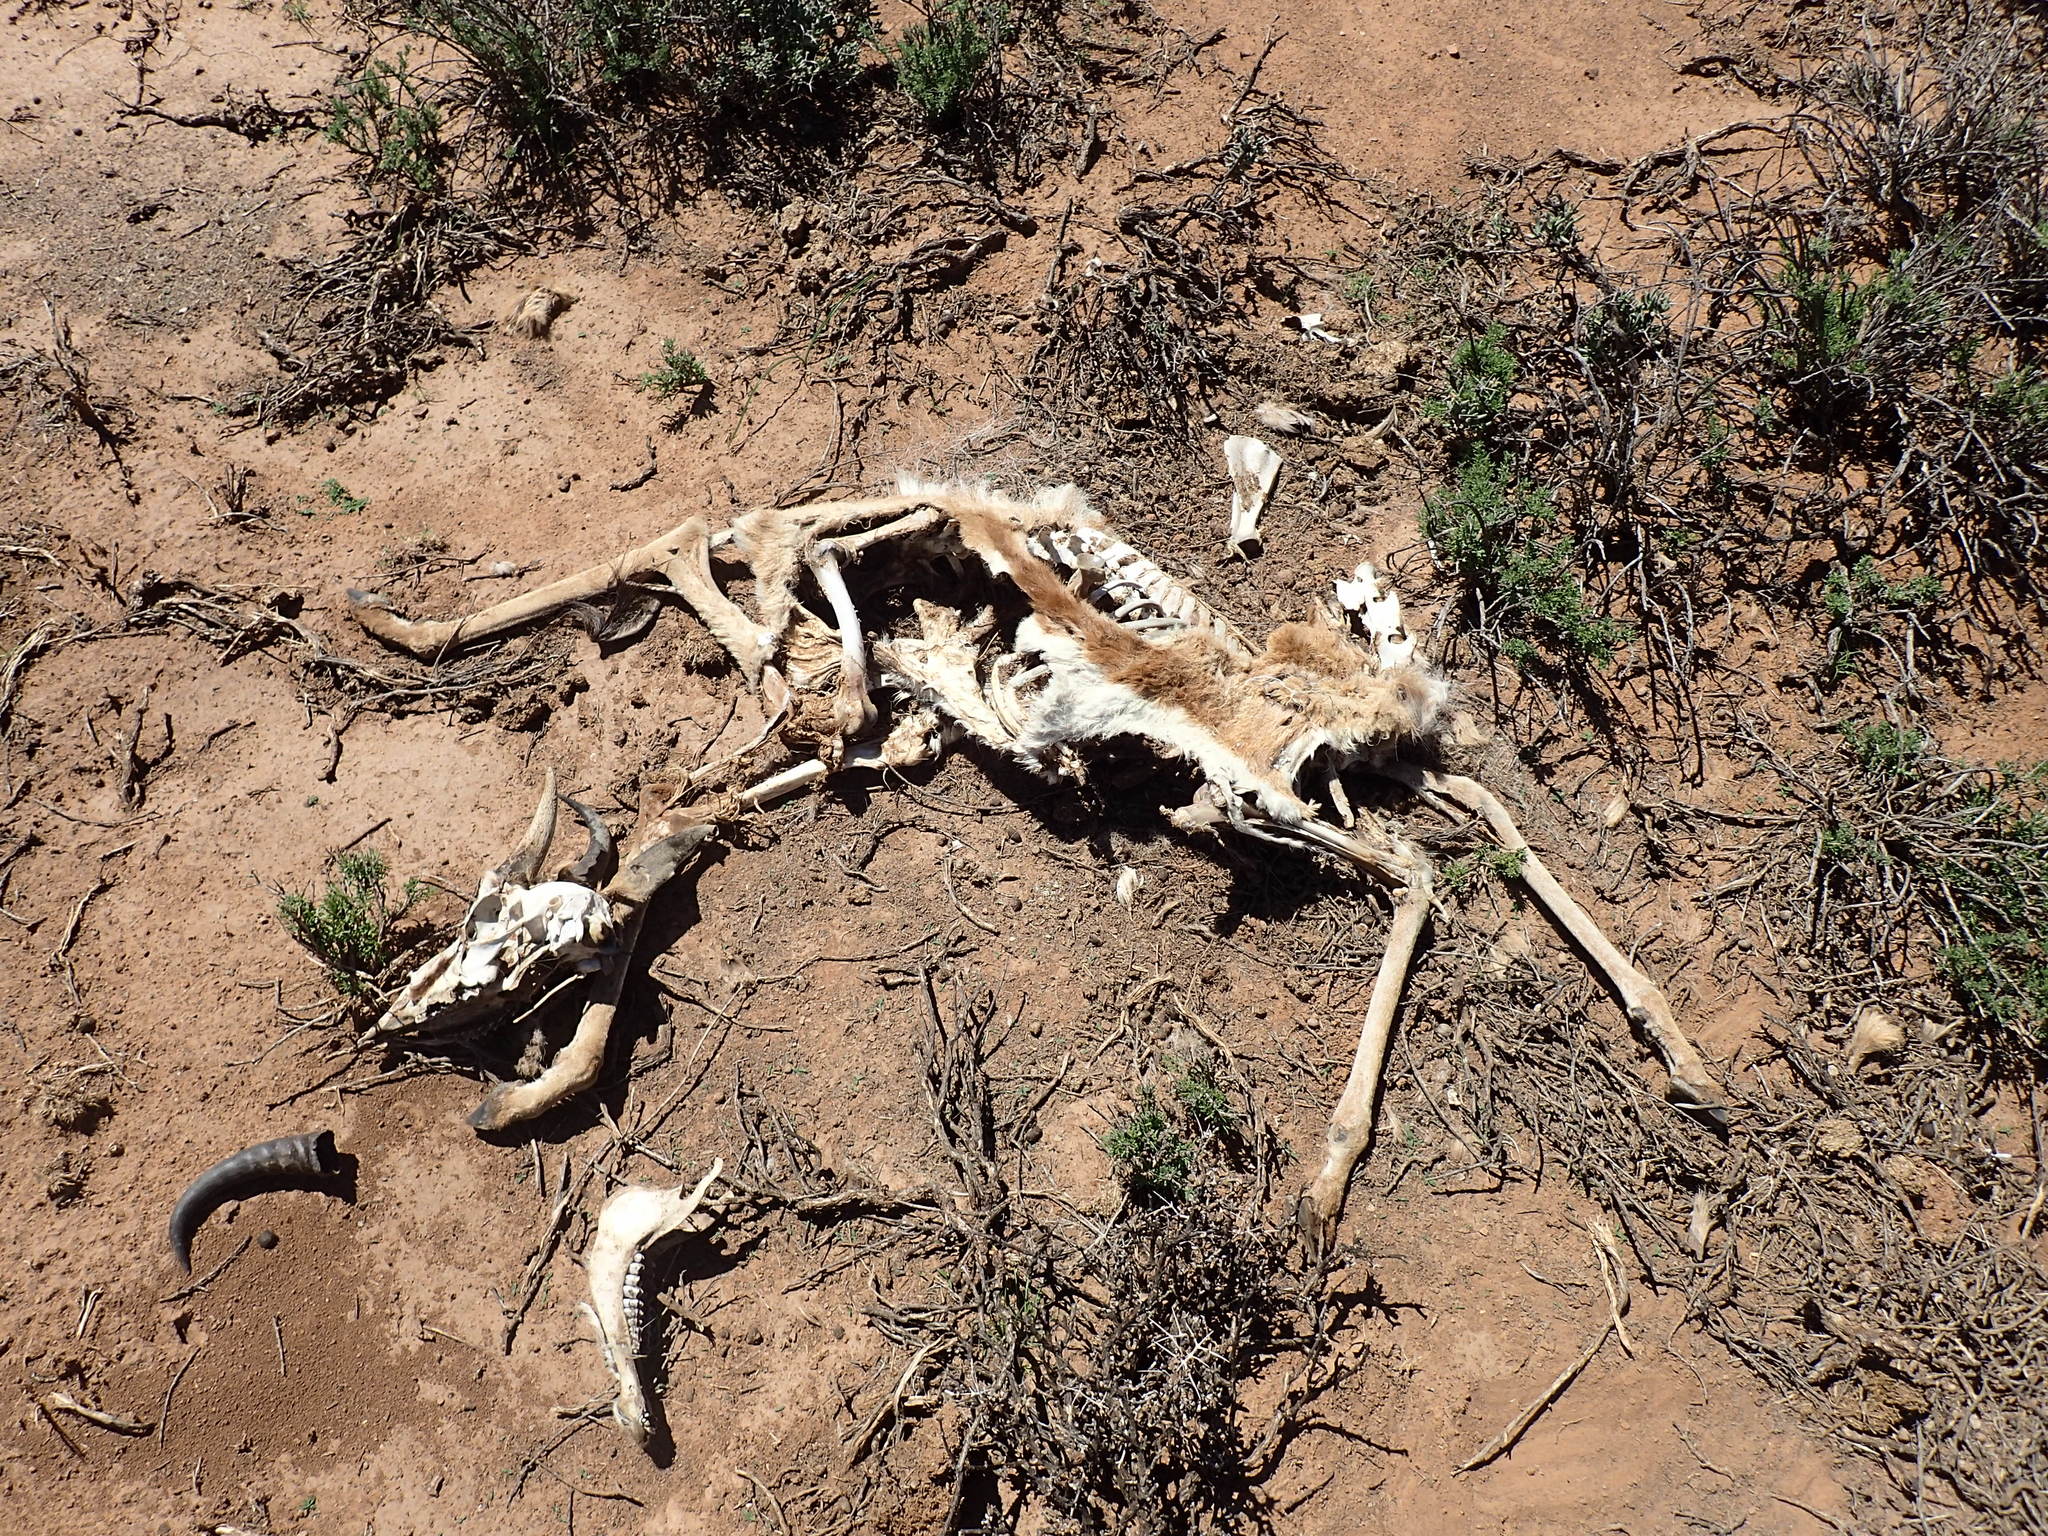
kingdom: Animalia
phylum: Chordata
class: Mammalia
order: Artiodactyla
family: Bovidae
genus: Antidorcas
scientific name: Antidorcas marsupialis
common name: Springbok
